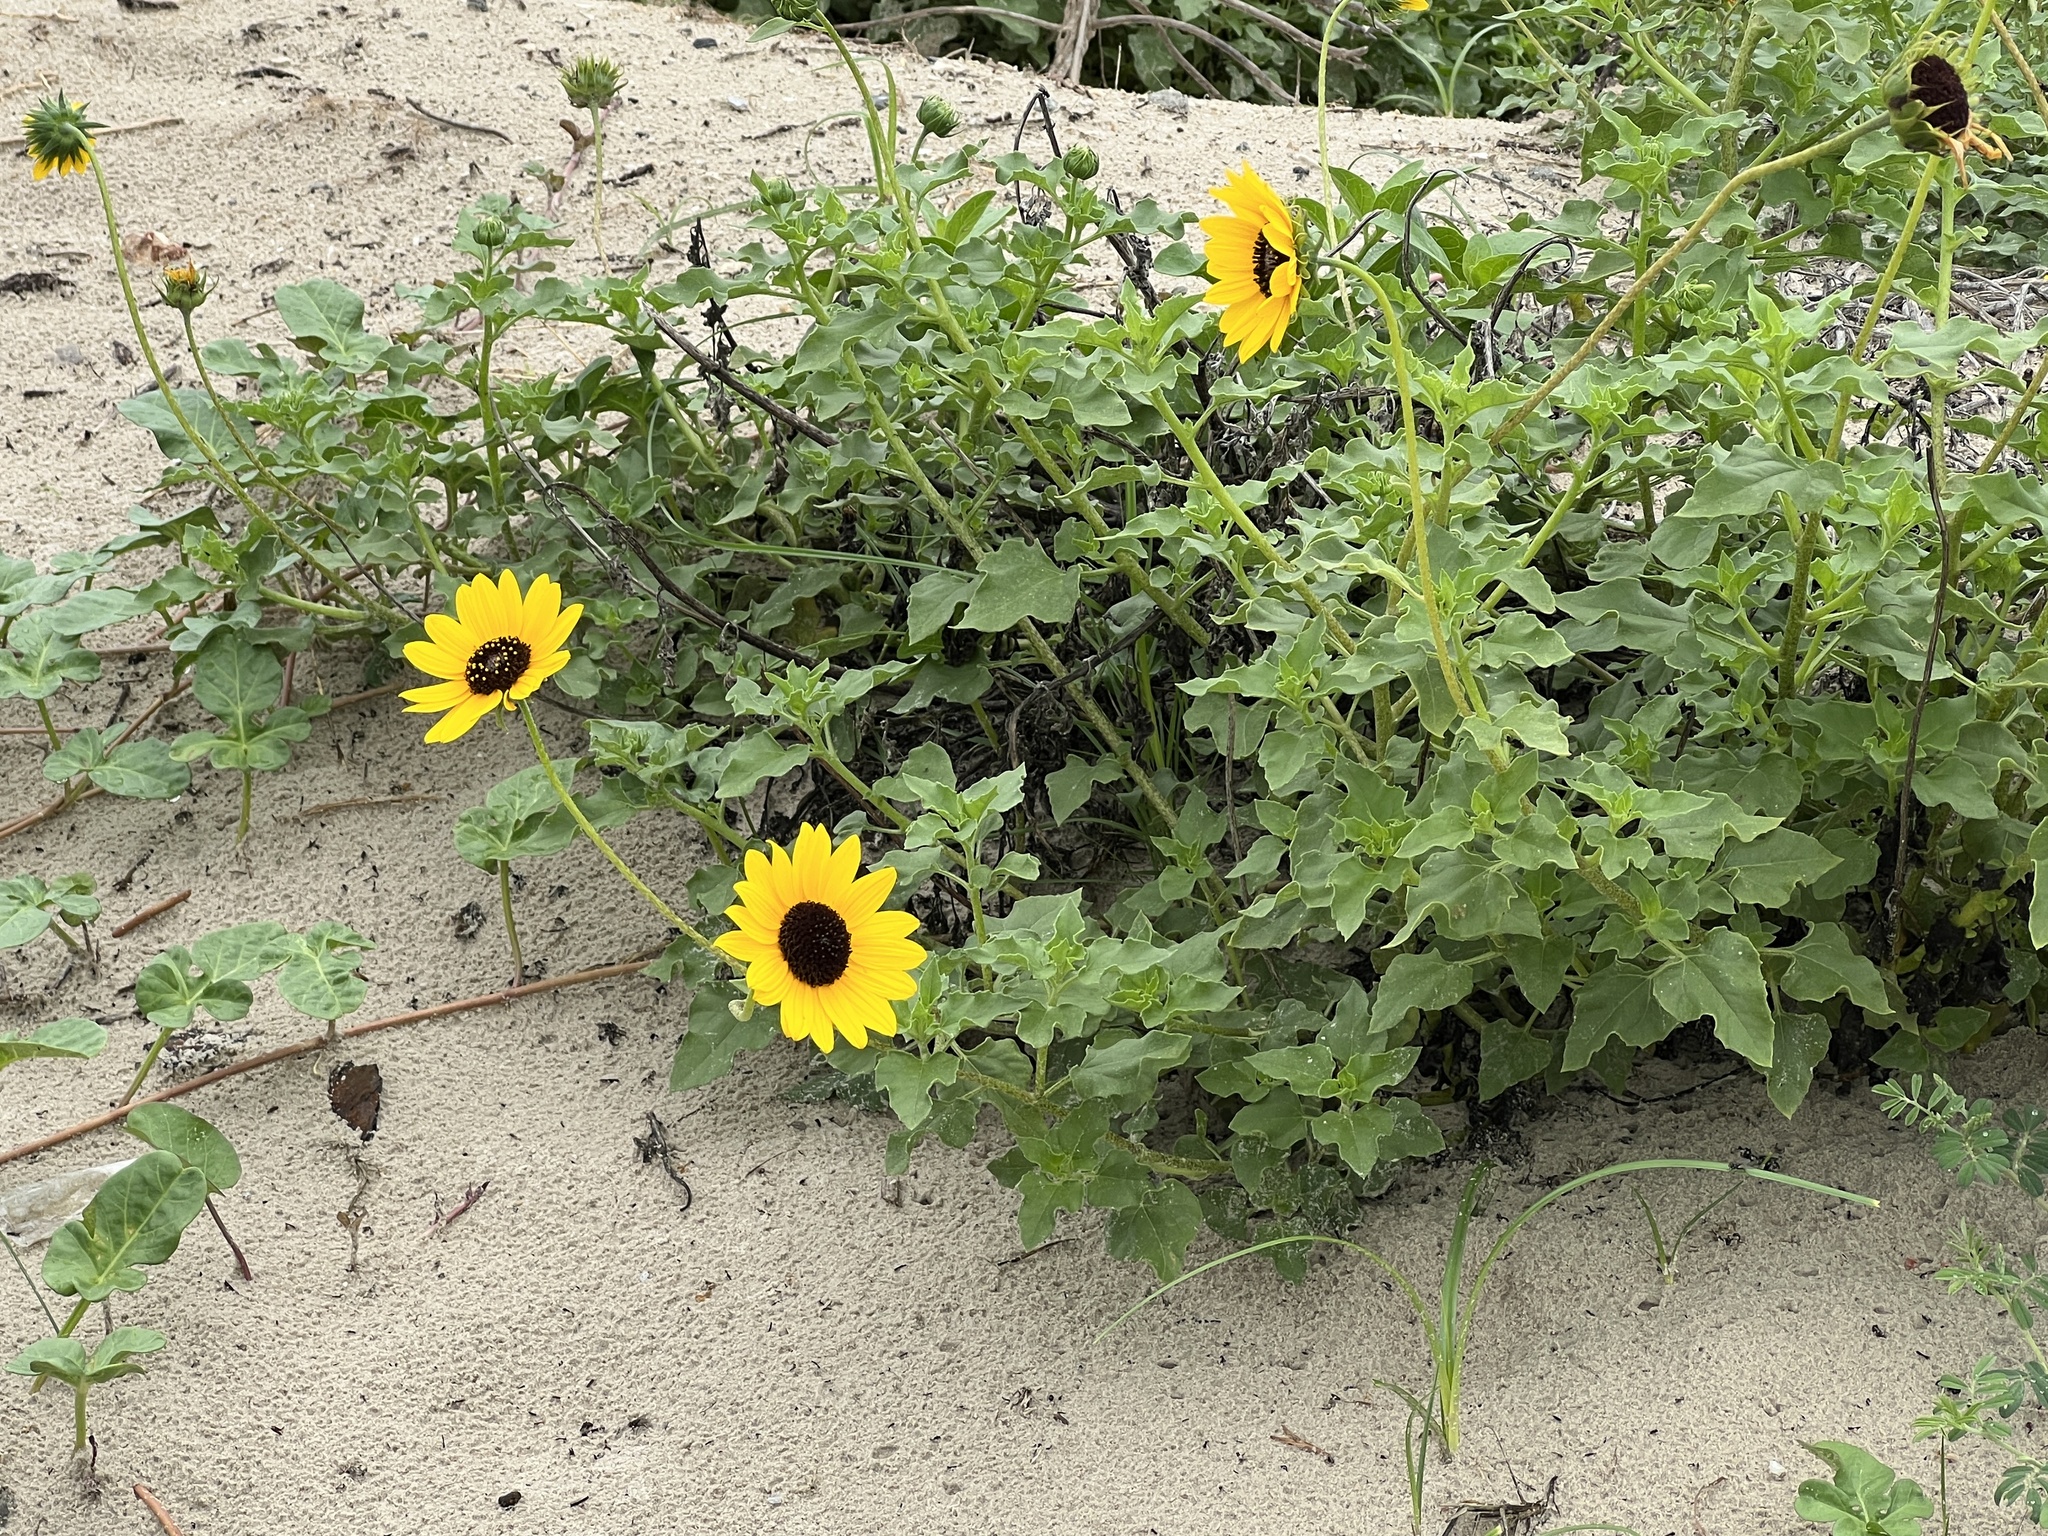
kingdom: Plantae
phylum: Tracheophyta
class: Magnoliopsida
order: Asterales
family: Asteraceae
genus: Helianthus
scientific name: Helianthus praecox
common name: Texas sunflower
